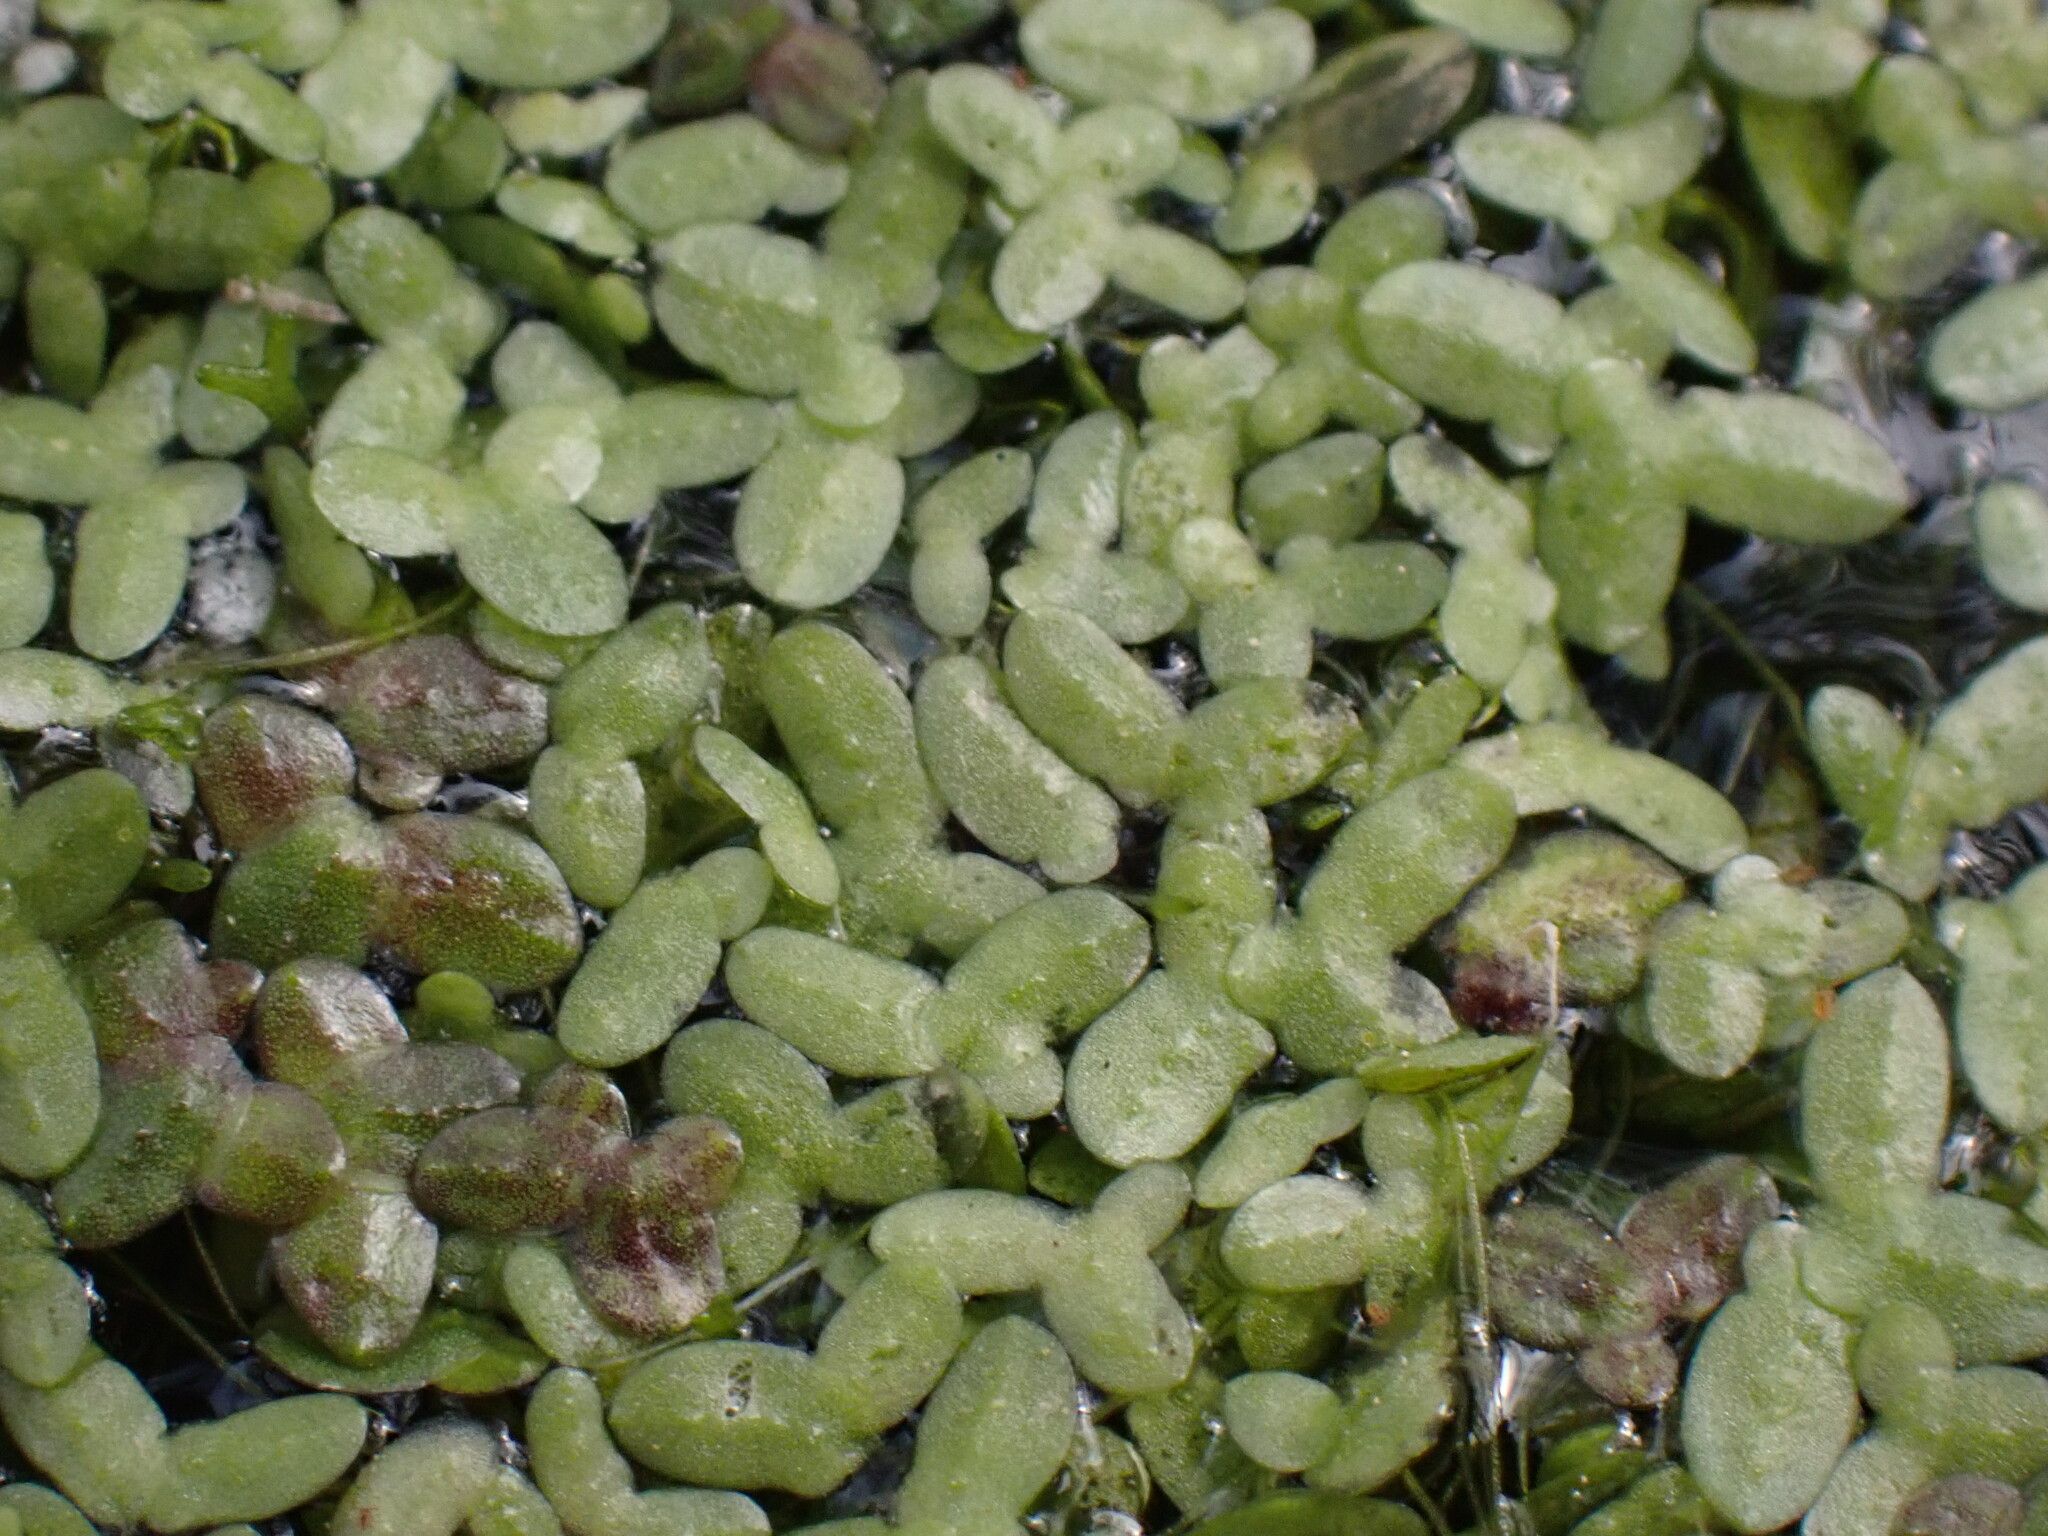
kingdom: Plantae
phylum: Tracheophyta
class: Liliopsida
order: Alismatales
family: Araceae
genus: Lemna
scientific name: Lemna turionifera
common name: Perennial duckweed
